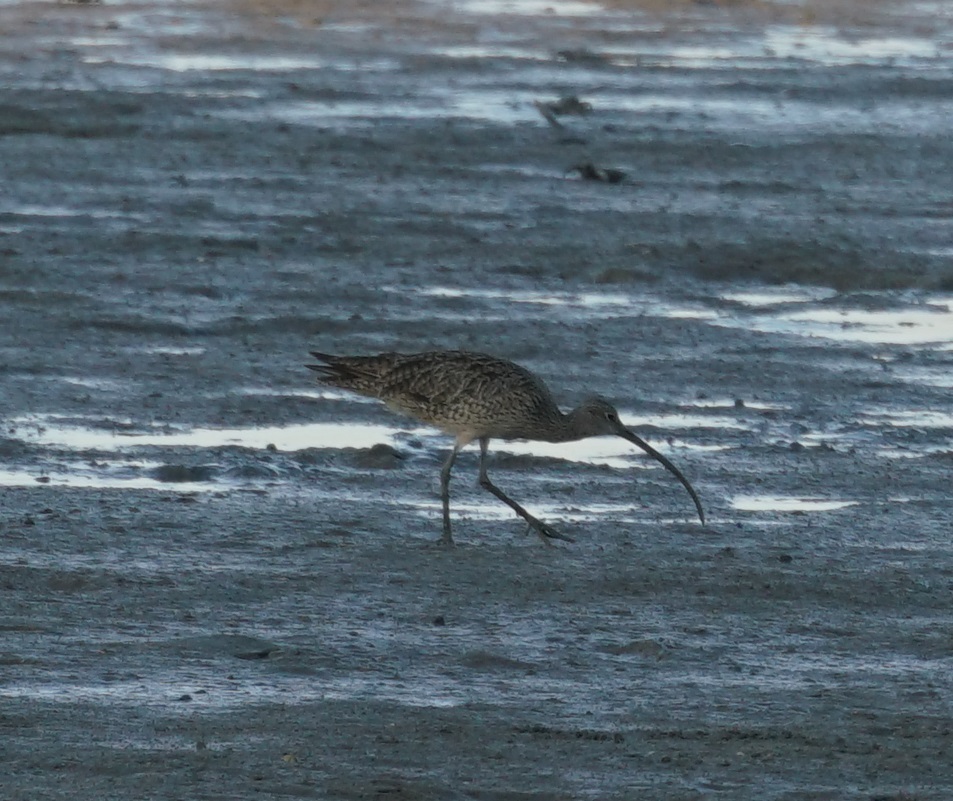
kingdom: Animalia
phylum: Chordata
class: Aves
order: Charadriiformes
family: Scolopacidae
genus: Numenius
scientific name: Numenius madagascariensis
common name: Far eastern curlew
